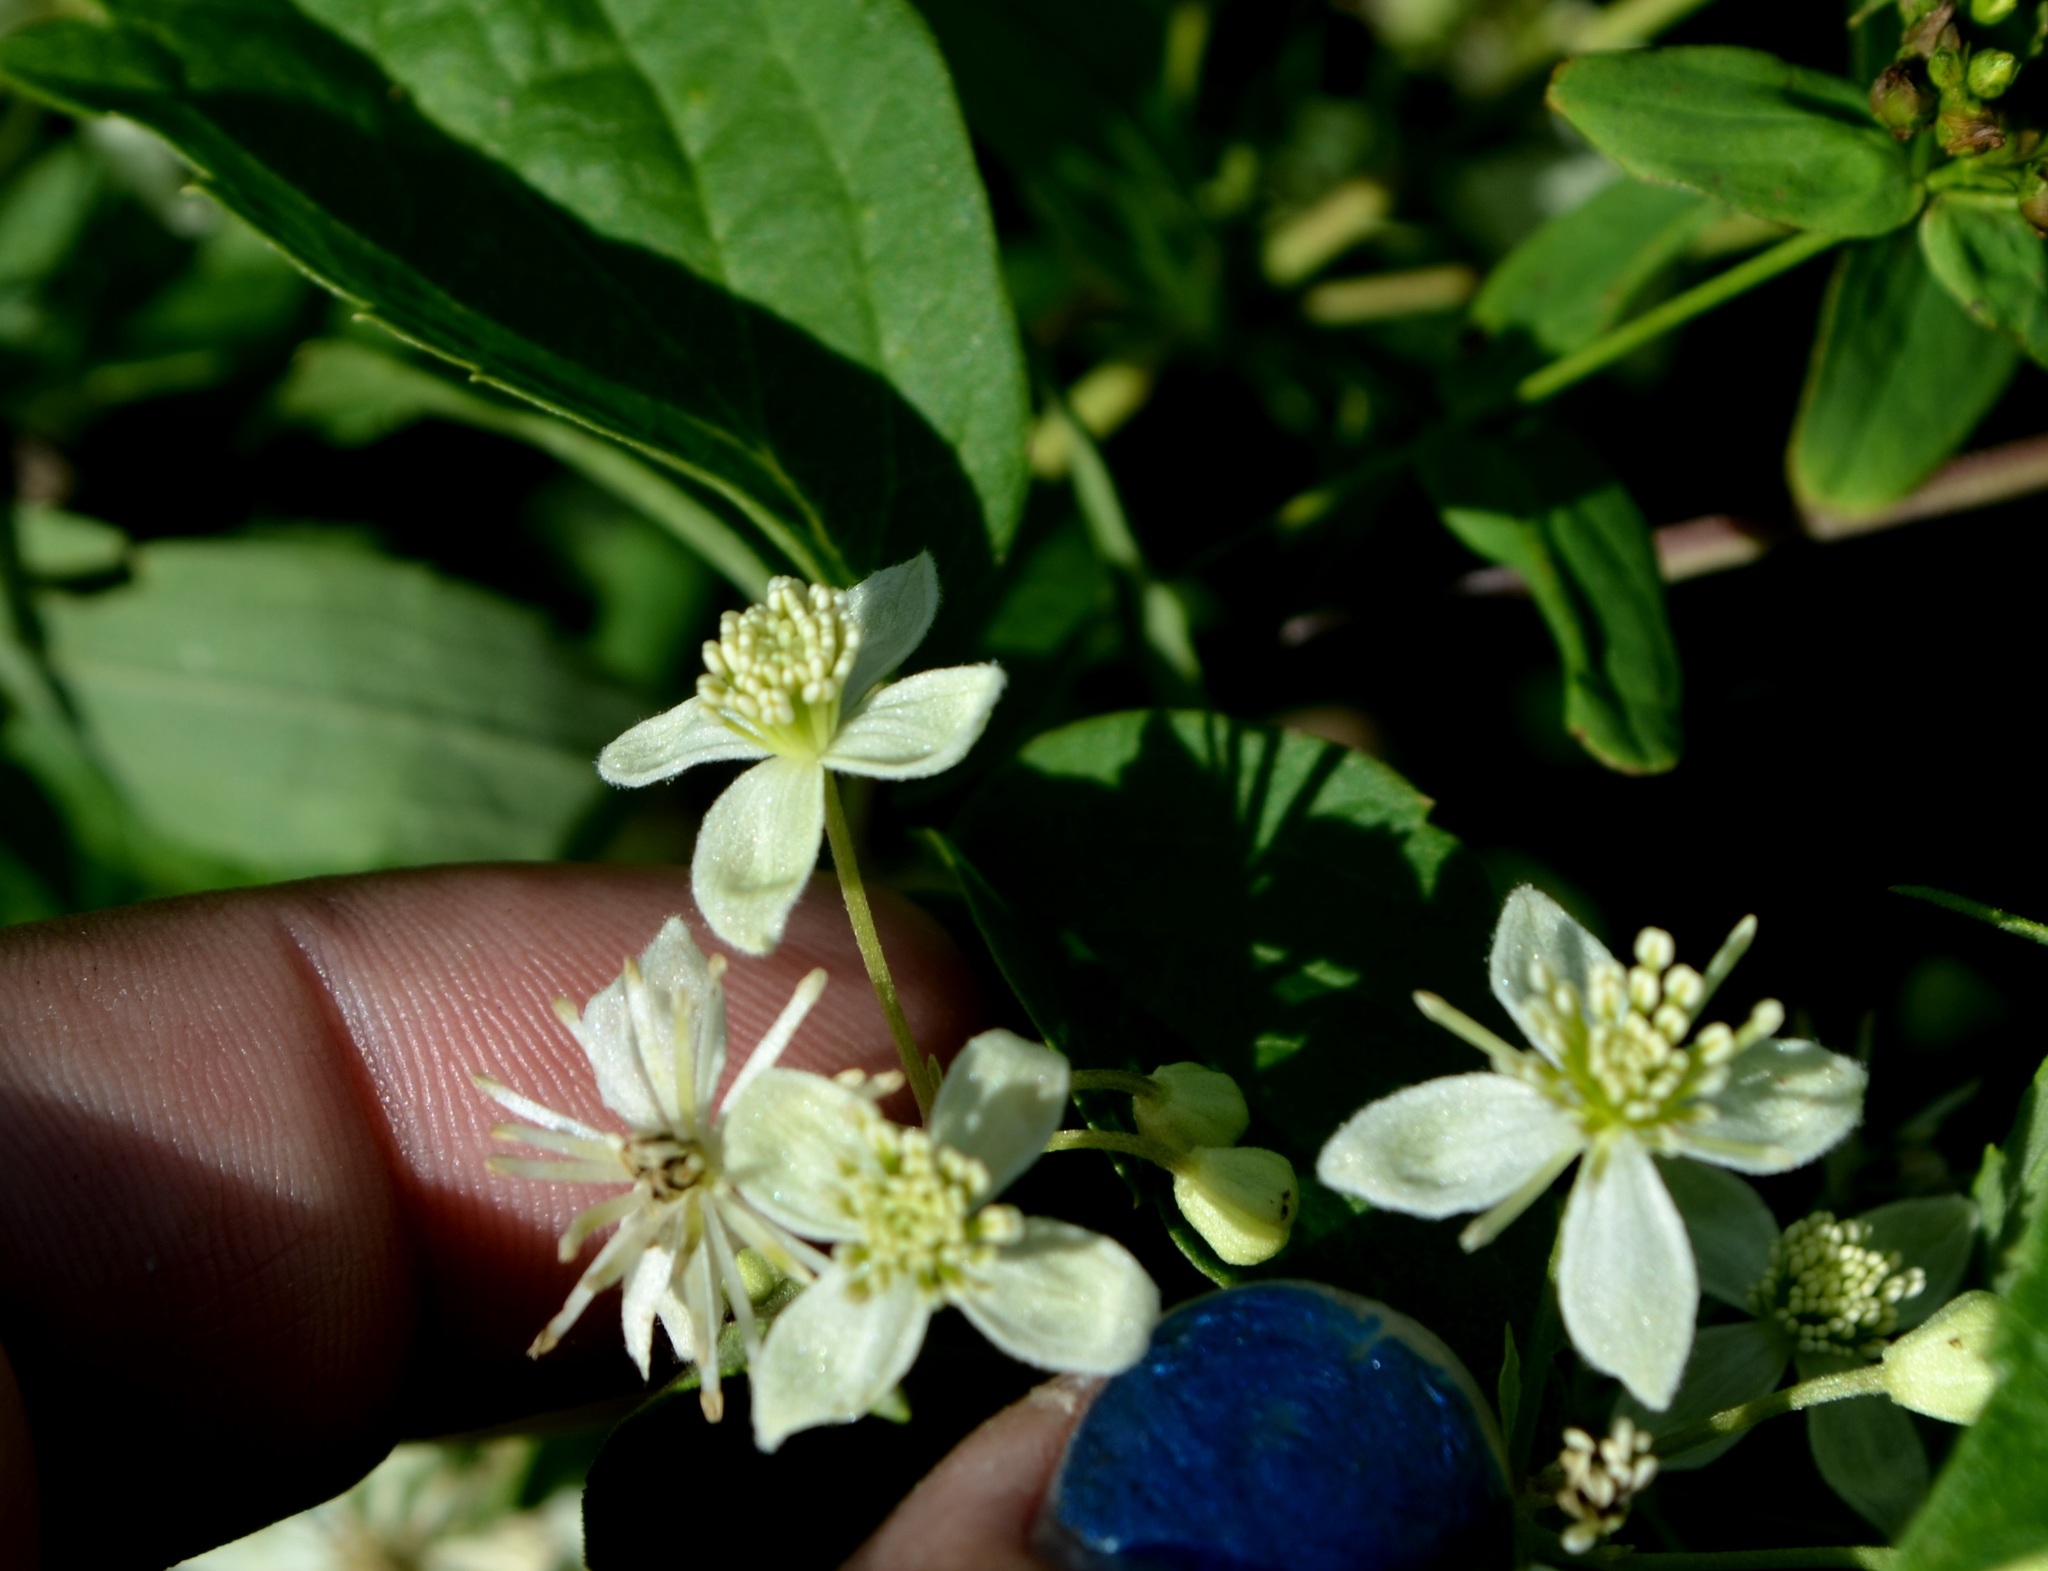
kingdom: Plantae
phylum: Tracheophyta
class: Magnoliopsida
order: Ranunculales
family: Ranunculaceae
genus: Clematis
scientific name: Clematis virginiana
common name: Virgin's-bower
